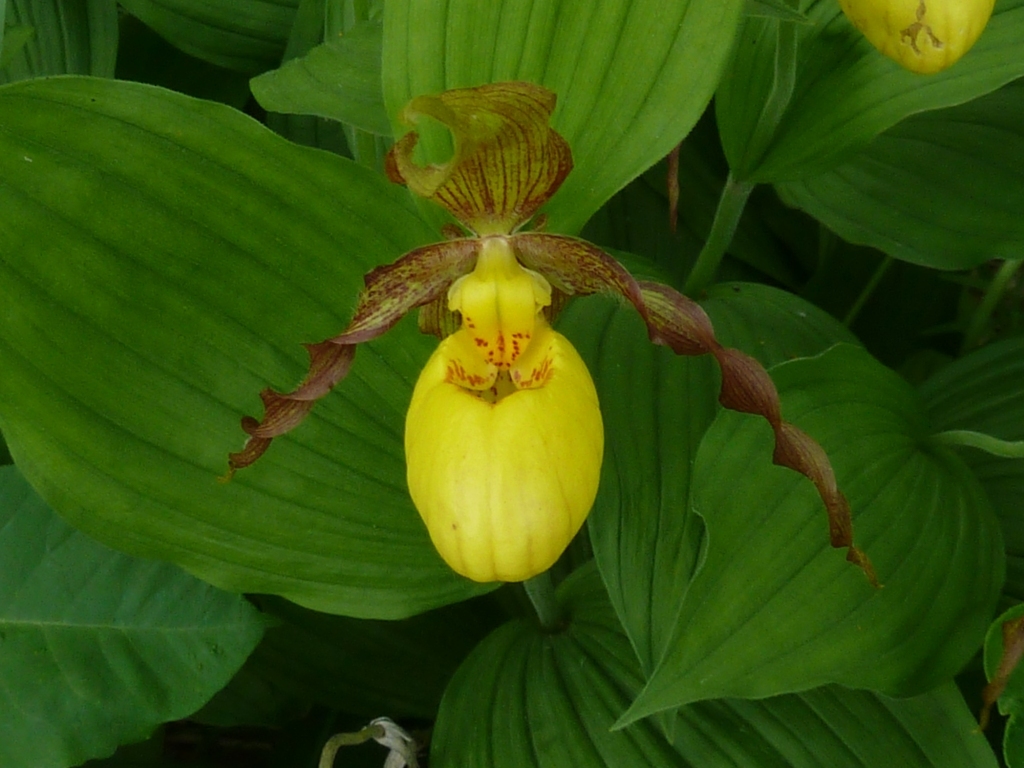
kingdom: Plantae
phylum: Tracheophyta
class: Liliopsida
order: Asparagales
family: Orchidaceae
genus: Cypripedium
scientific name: Cypripedium parviflorum
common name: American yellow lady's-slipper
